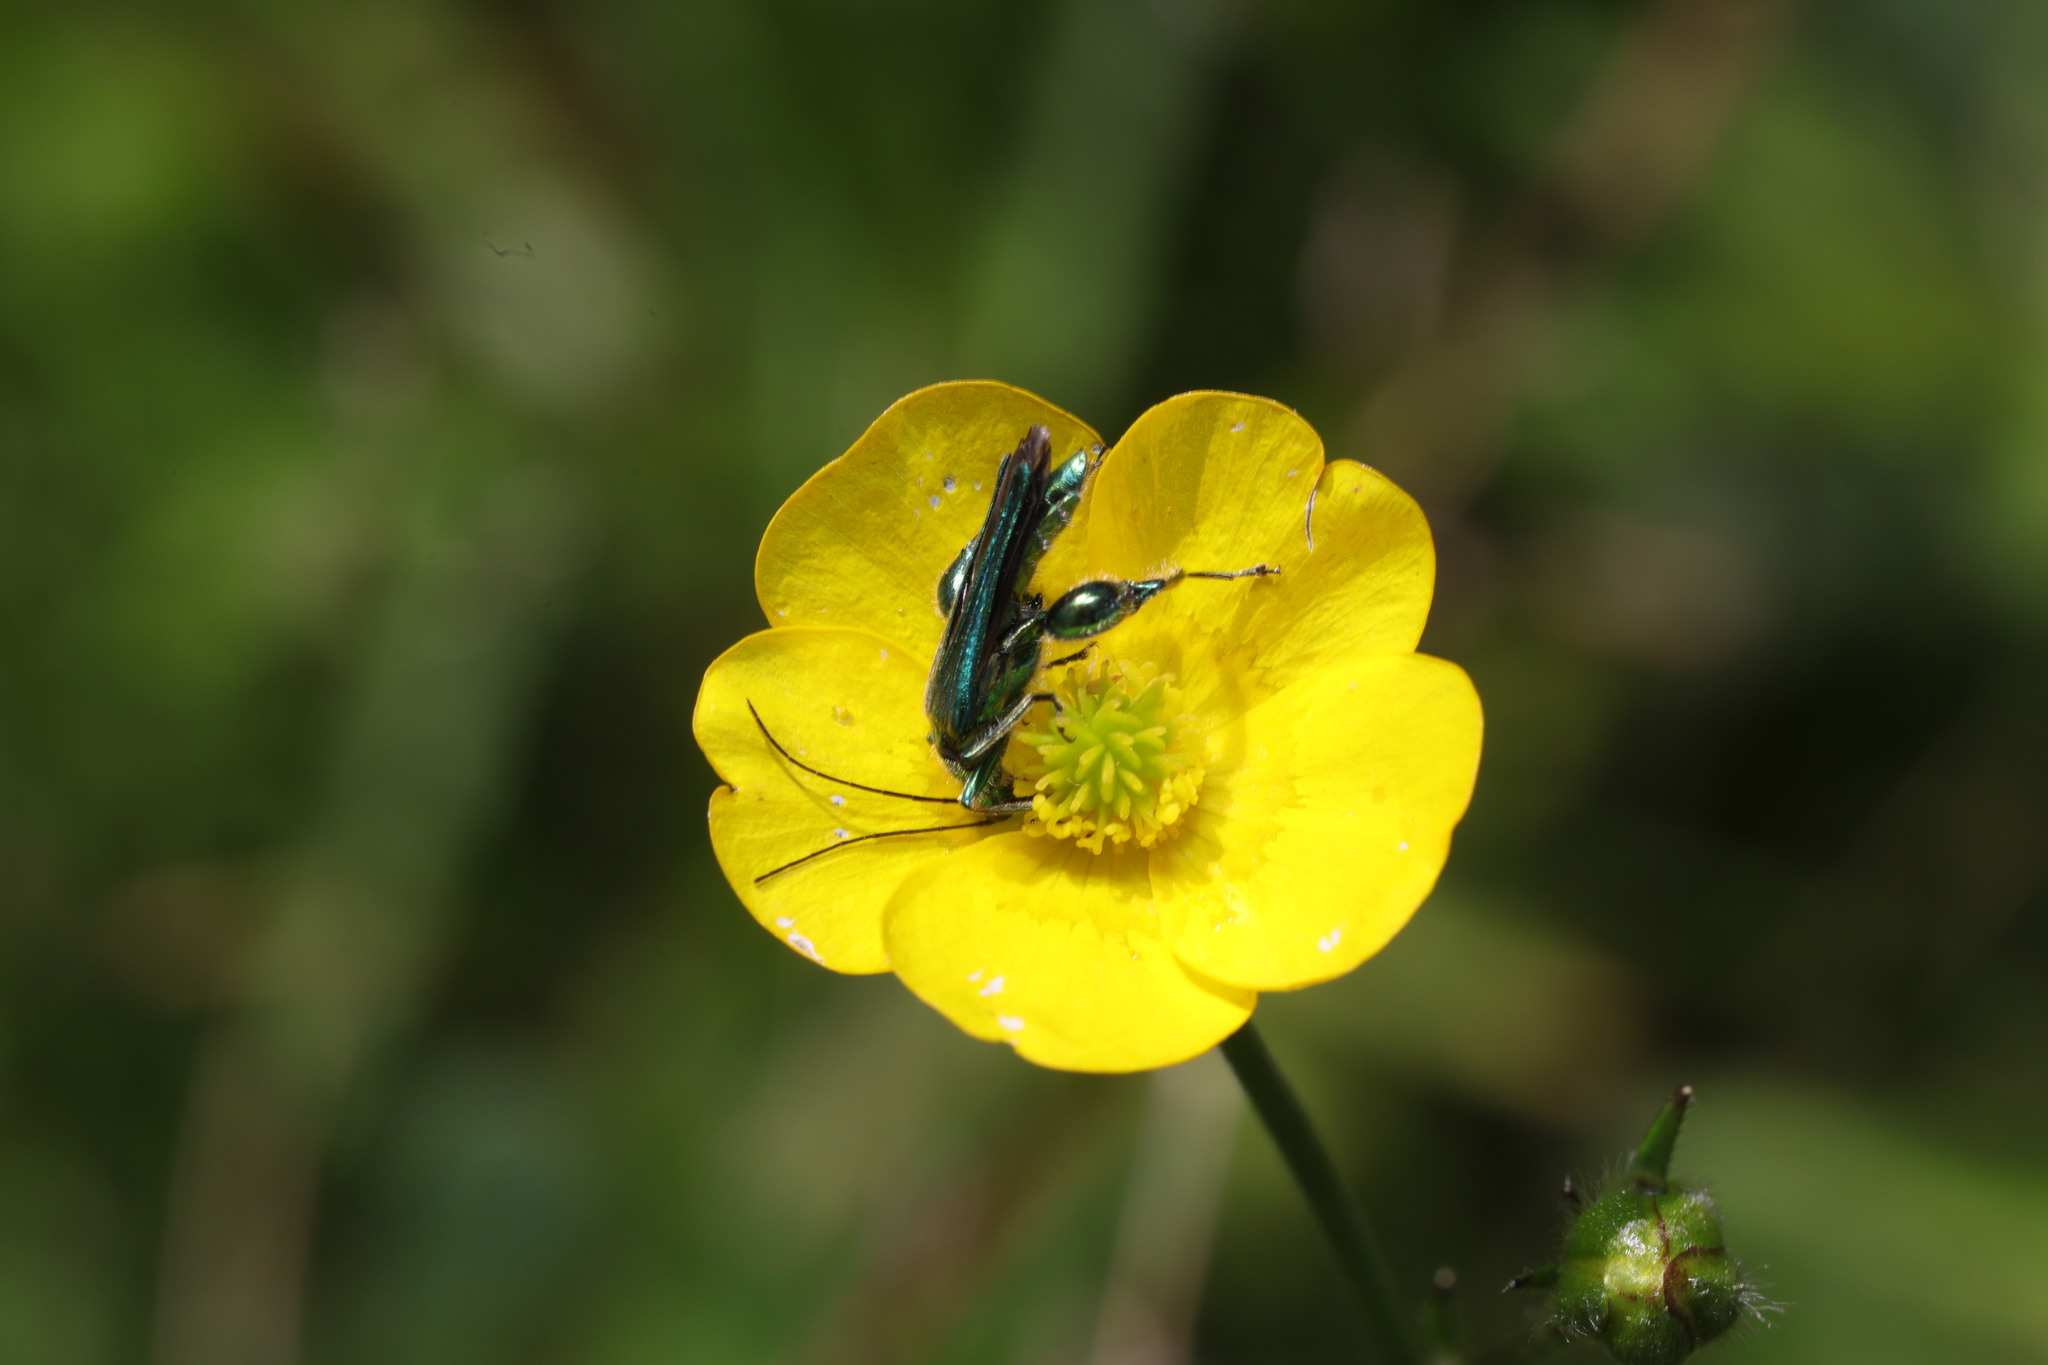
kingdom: Animalia
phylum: Arthropoda
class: Insecta
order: Coleoptera
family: Oedemeridae
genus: Oedemera
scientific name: Oedemera nobilis
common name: Swollen-thighed beetle
